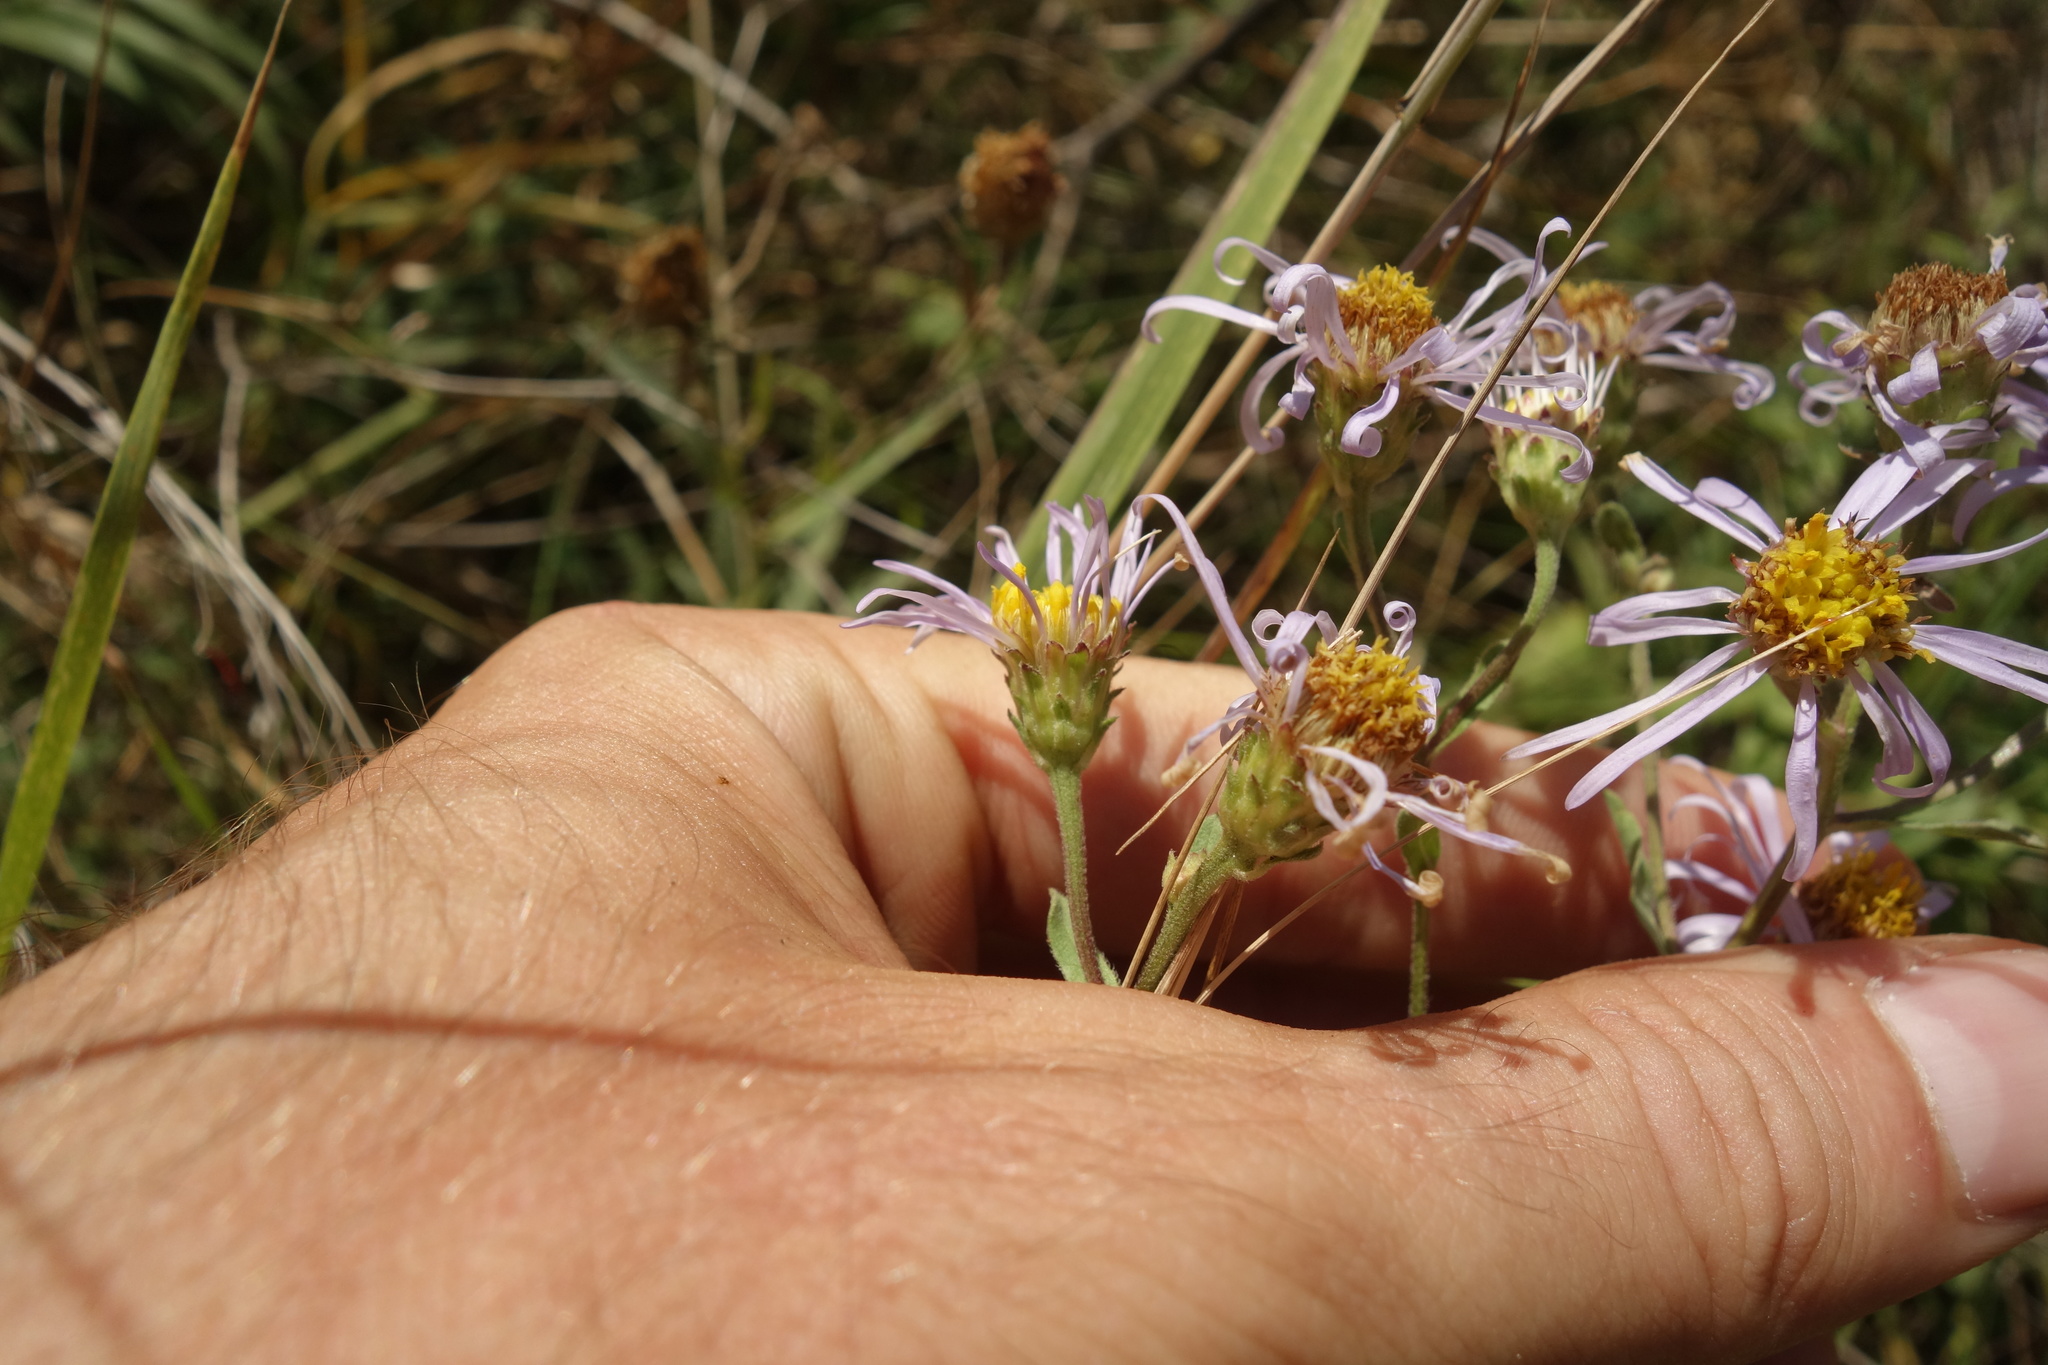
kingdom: Plantae
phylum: Tracheophyta
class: Magnoliopsida
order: Asterales
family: Asteraceae
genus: Aster
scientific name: Aster amellus
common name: European michaelmas daisy
